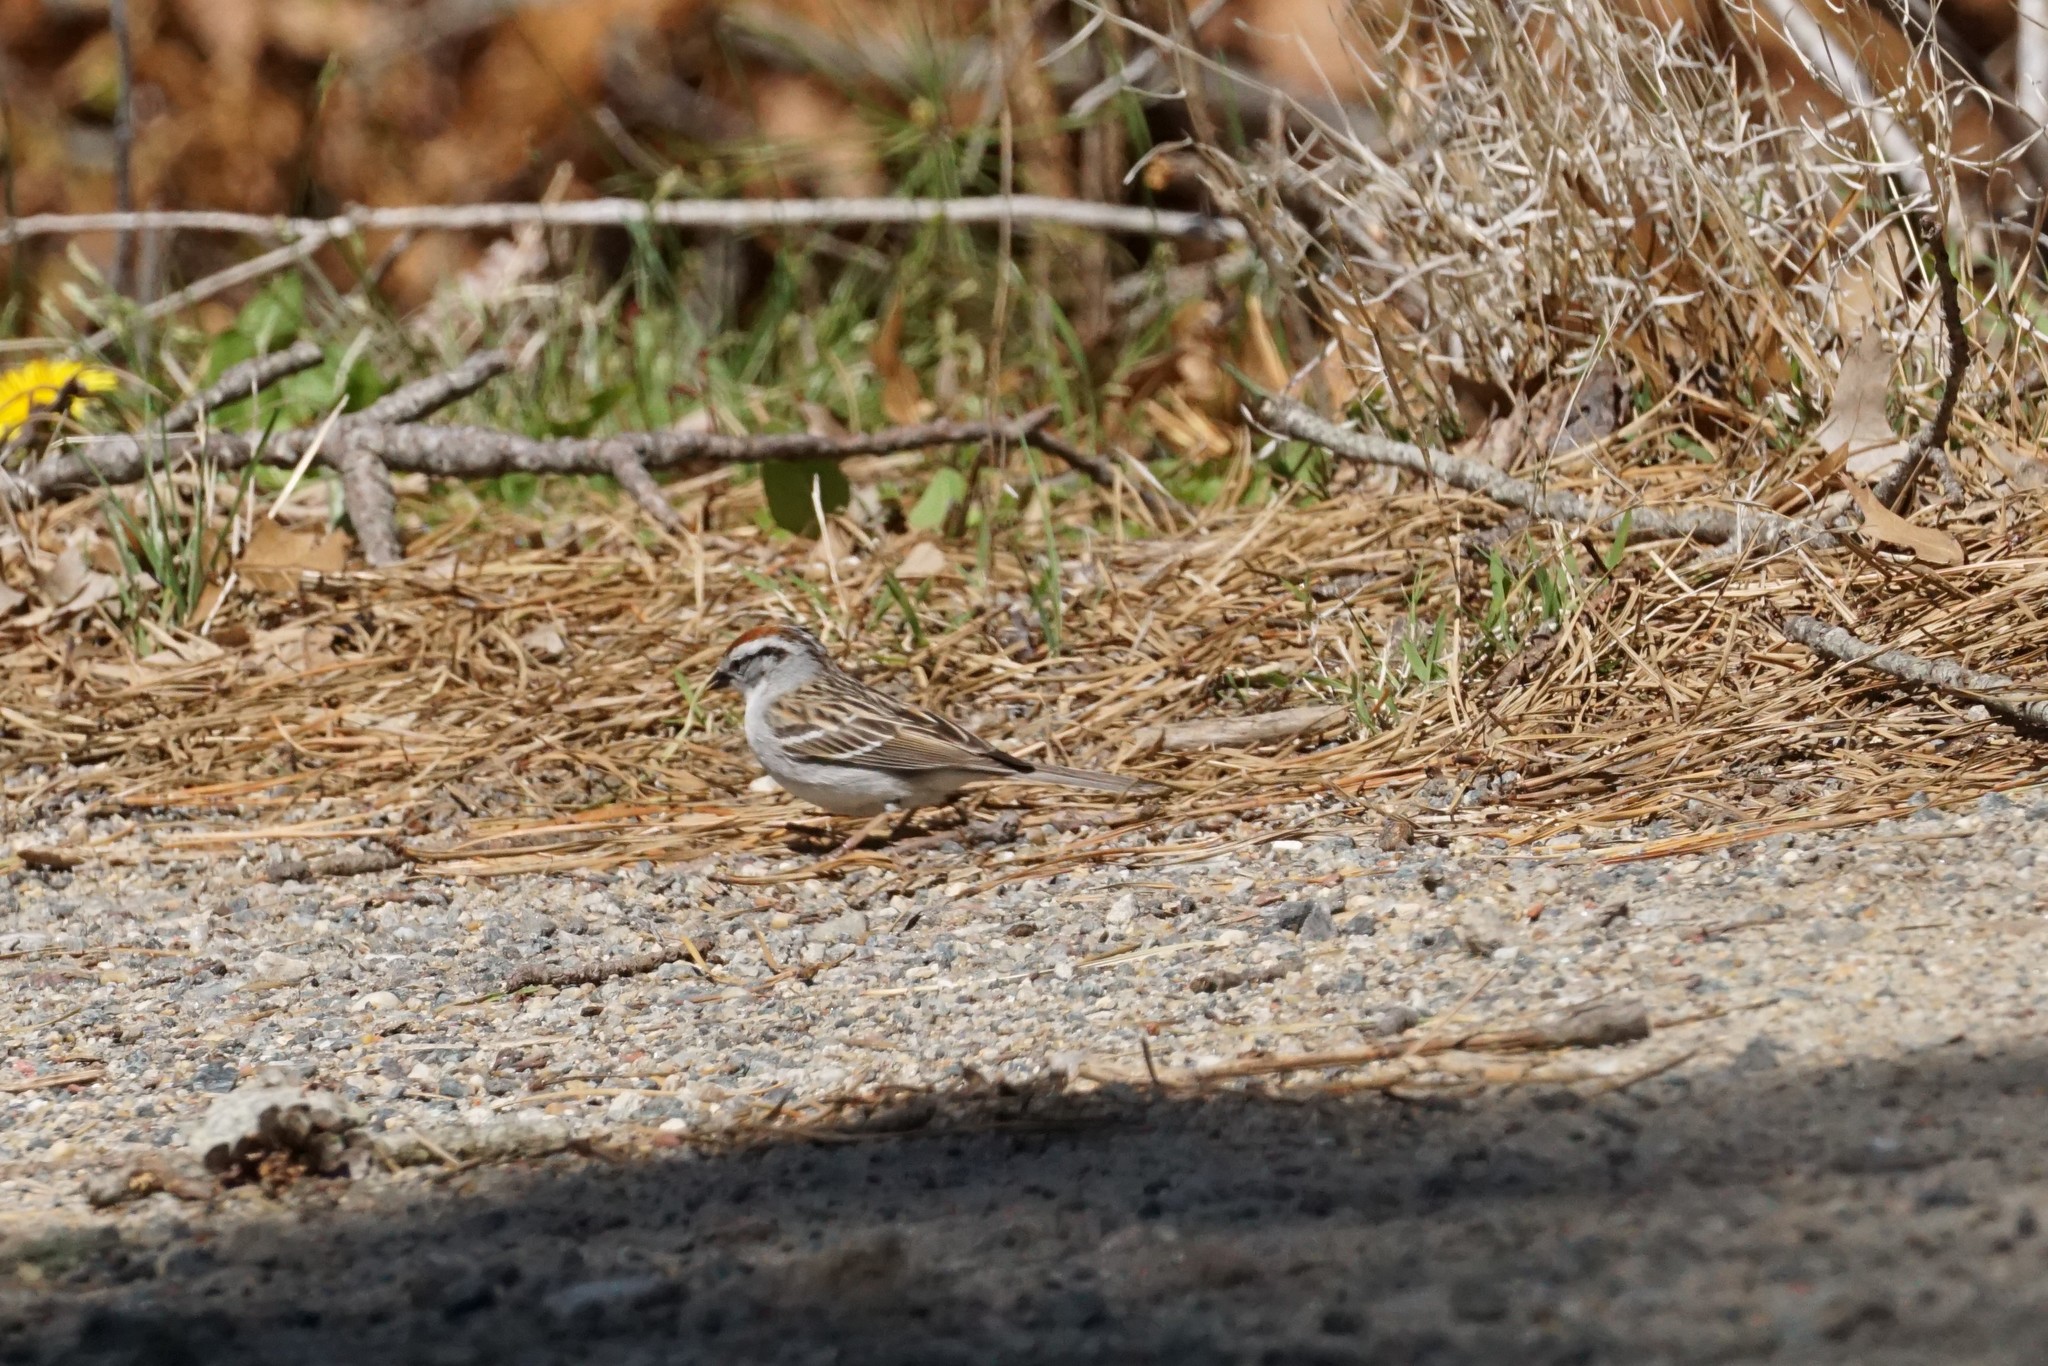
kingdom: Animalia
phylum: Chordata
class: Aves
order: Passeriformes
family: Passerellidae
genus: Spizella
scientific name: Spizella passerina
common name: Chipping sparrow
